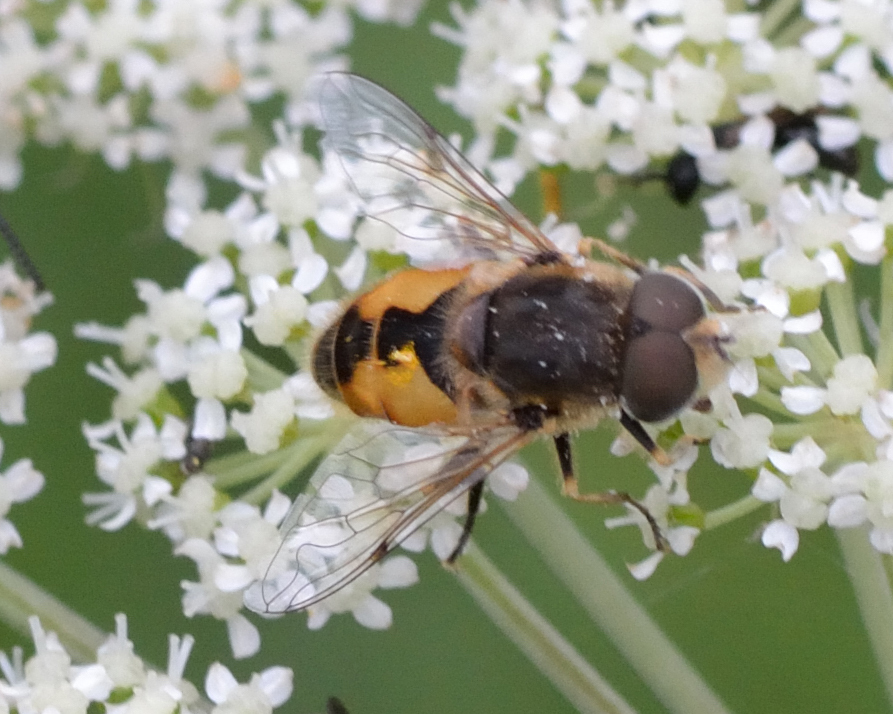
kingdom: Animalia
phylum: Arthropoda
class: Insecta
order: Diptera
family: Syrphidae
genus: Eristalis
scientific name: Eristalis arbustorum
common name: Hover fly
